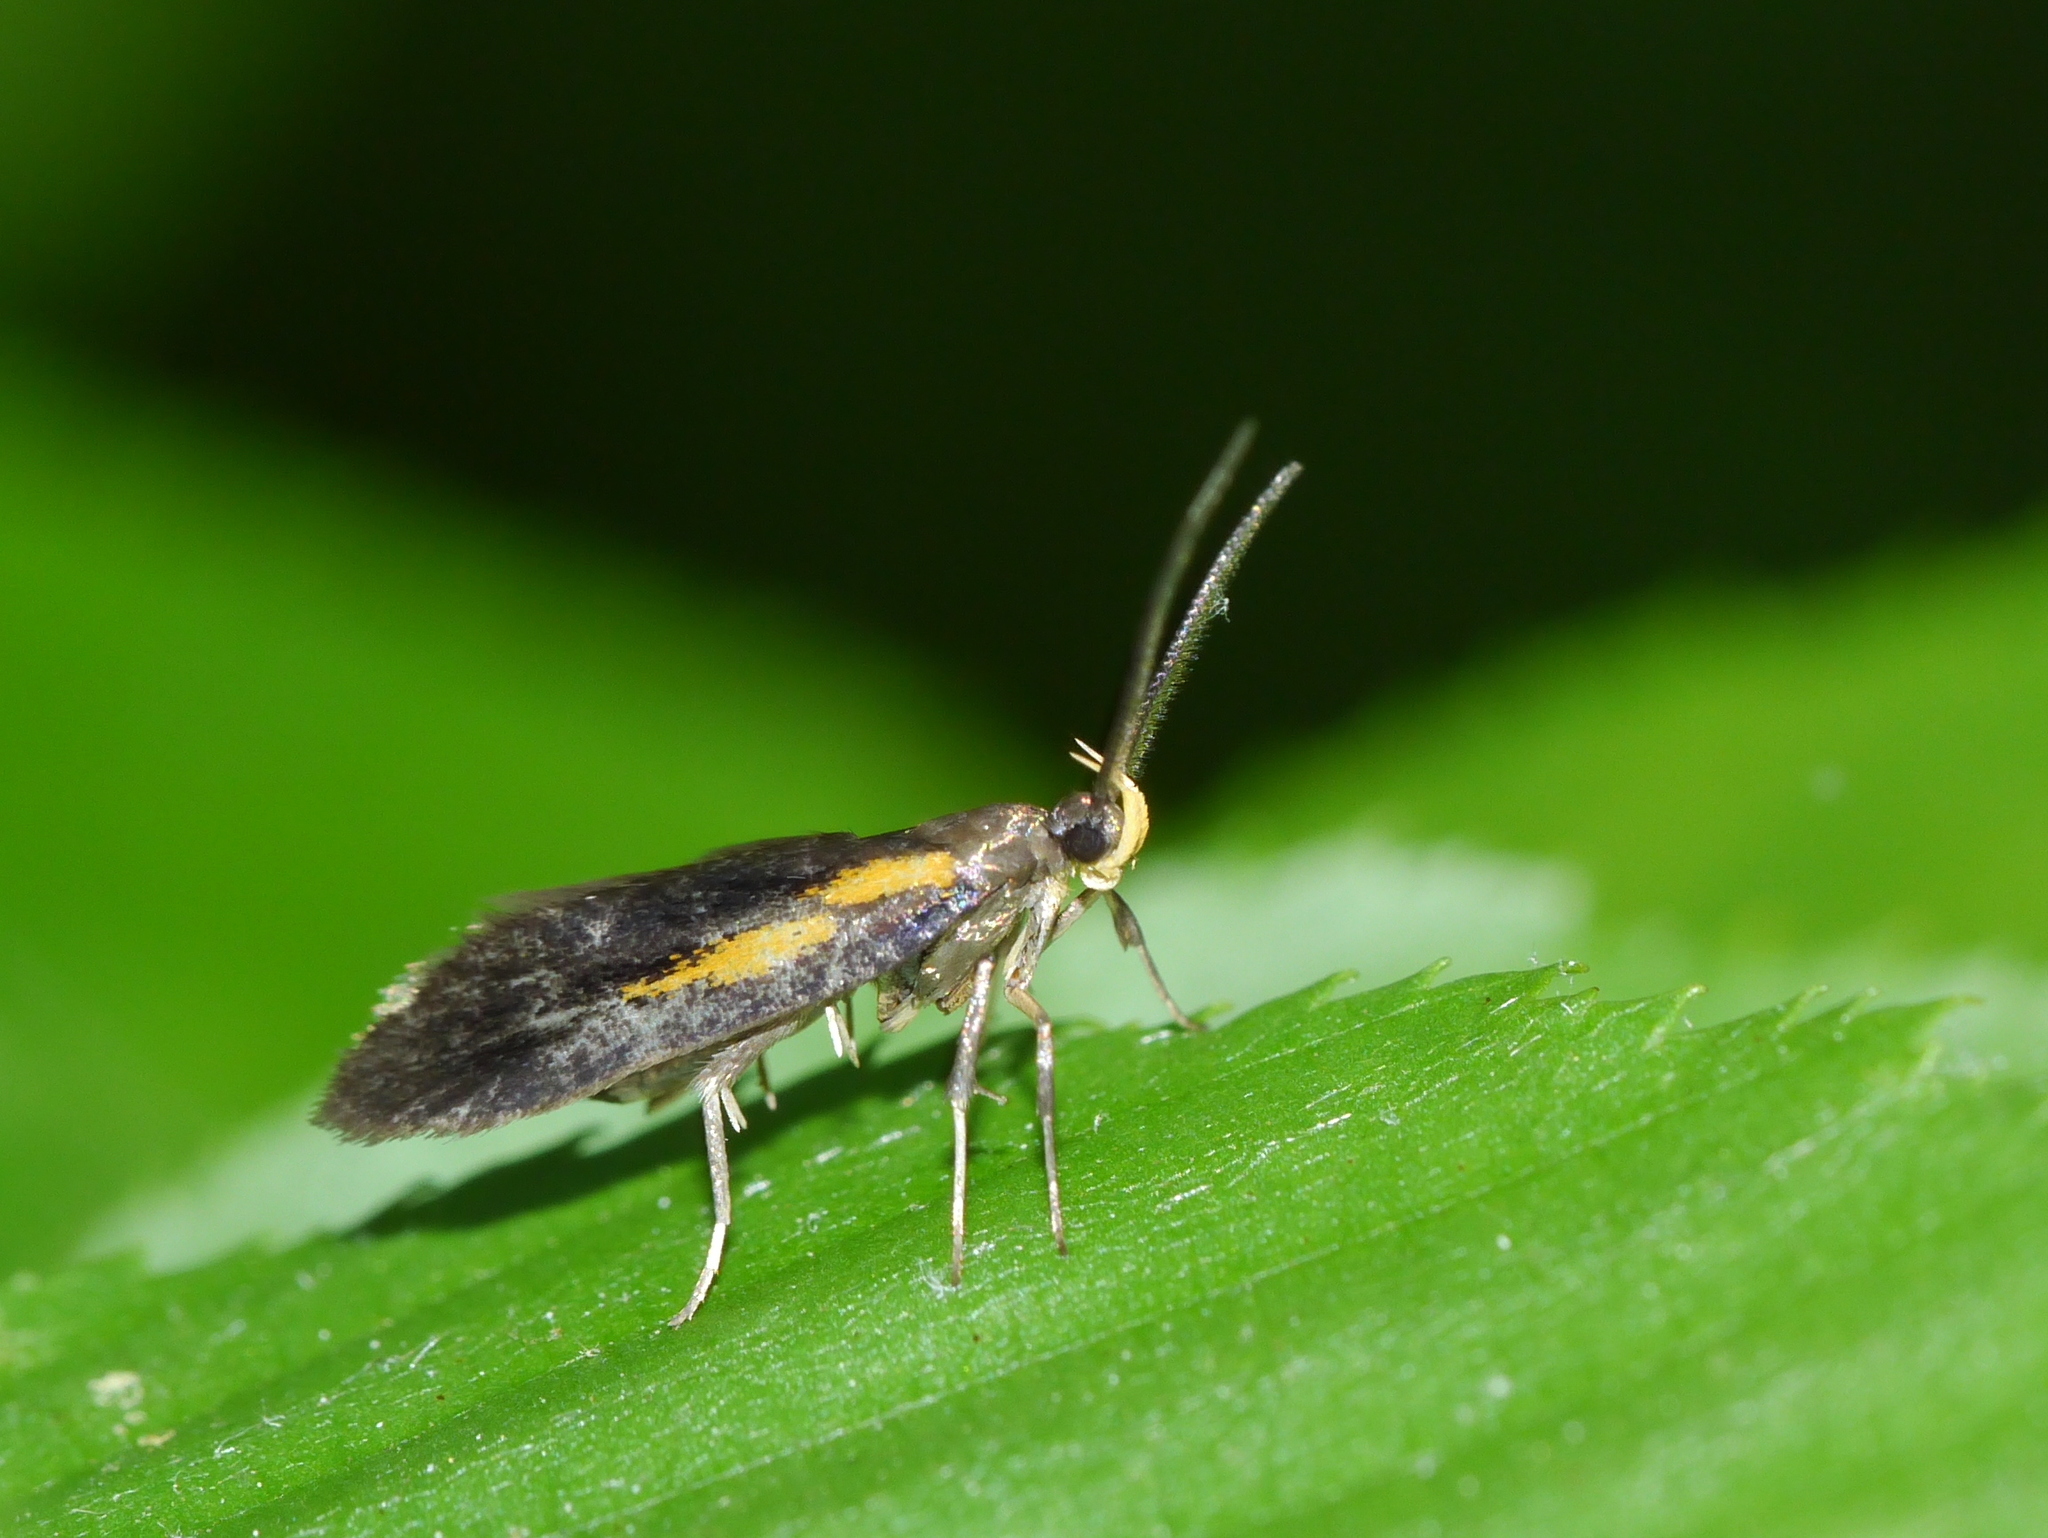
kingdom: Animalia
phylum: Arthropoda
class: Insecta
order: Lepidoptera
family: Oecophoridae
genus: Mathildana
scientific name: Mathildana newmanella
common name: Newman's mathildana moth
